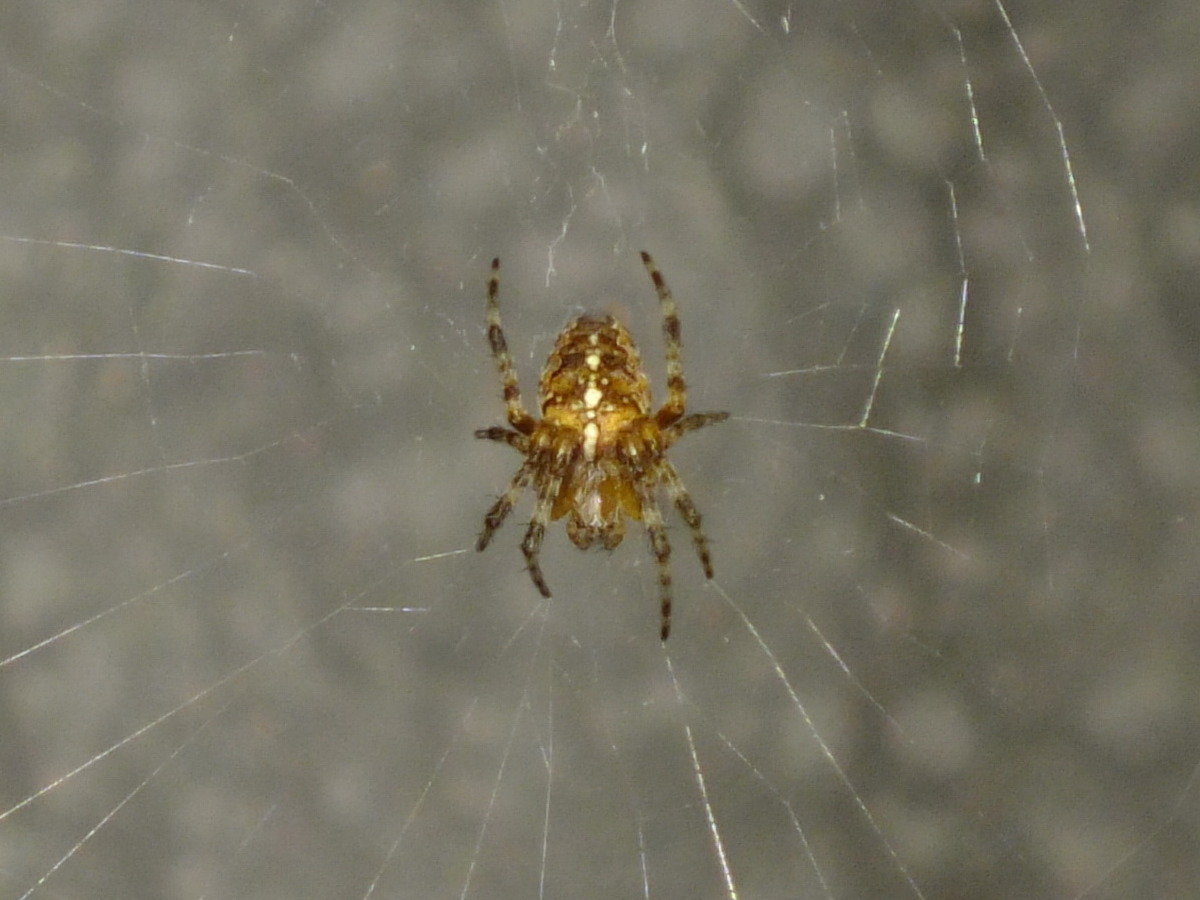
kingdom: Animalia
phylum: Arthropoda
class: Arachnida
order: Araneae
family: Araneidae
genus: Araneus
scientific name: Araneus diadematus
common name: Cross orbweaver
